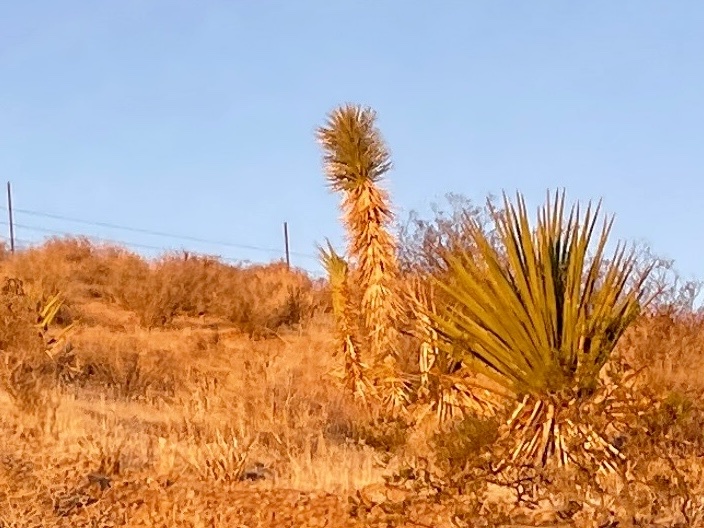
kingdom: Plantae
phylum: Tracheophyta
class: Liliopsida
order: Asparagales
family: Asparagaceae
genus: Yucca
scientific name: Yucca brevifolia
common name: Joshua tree
